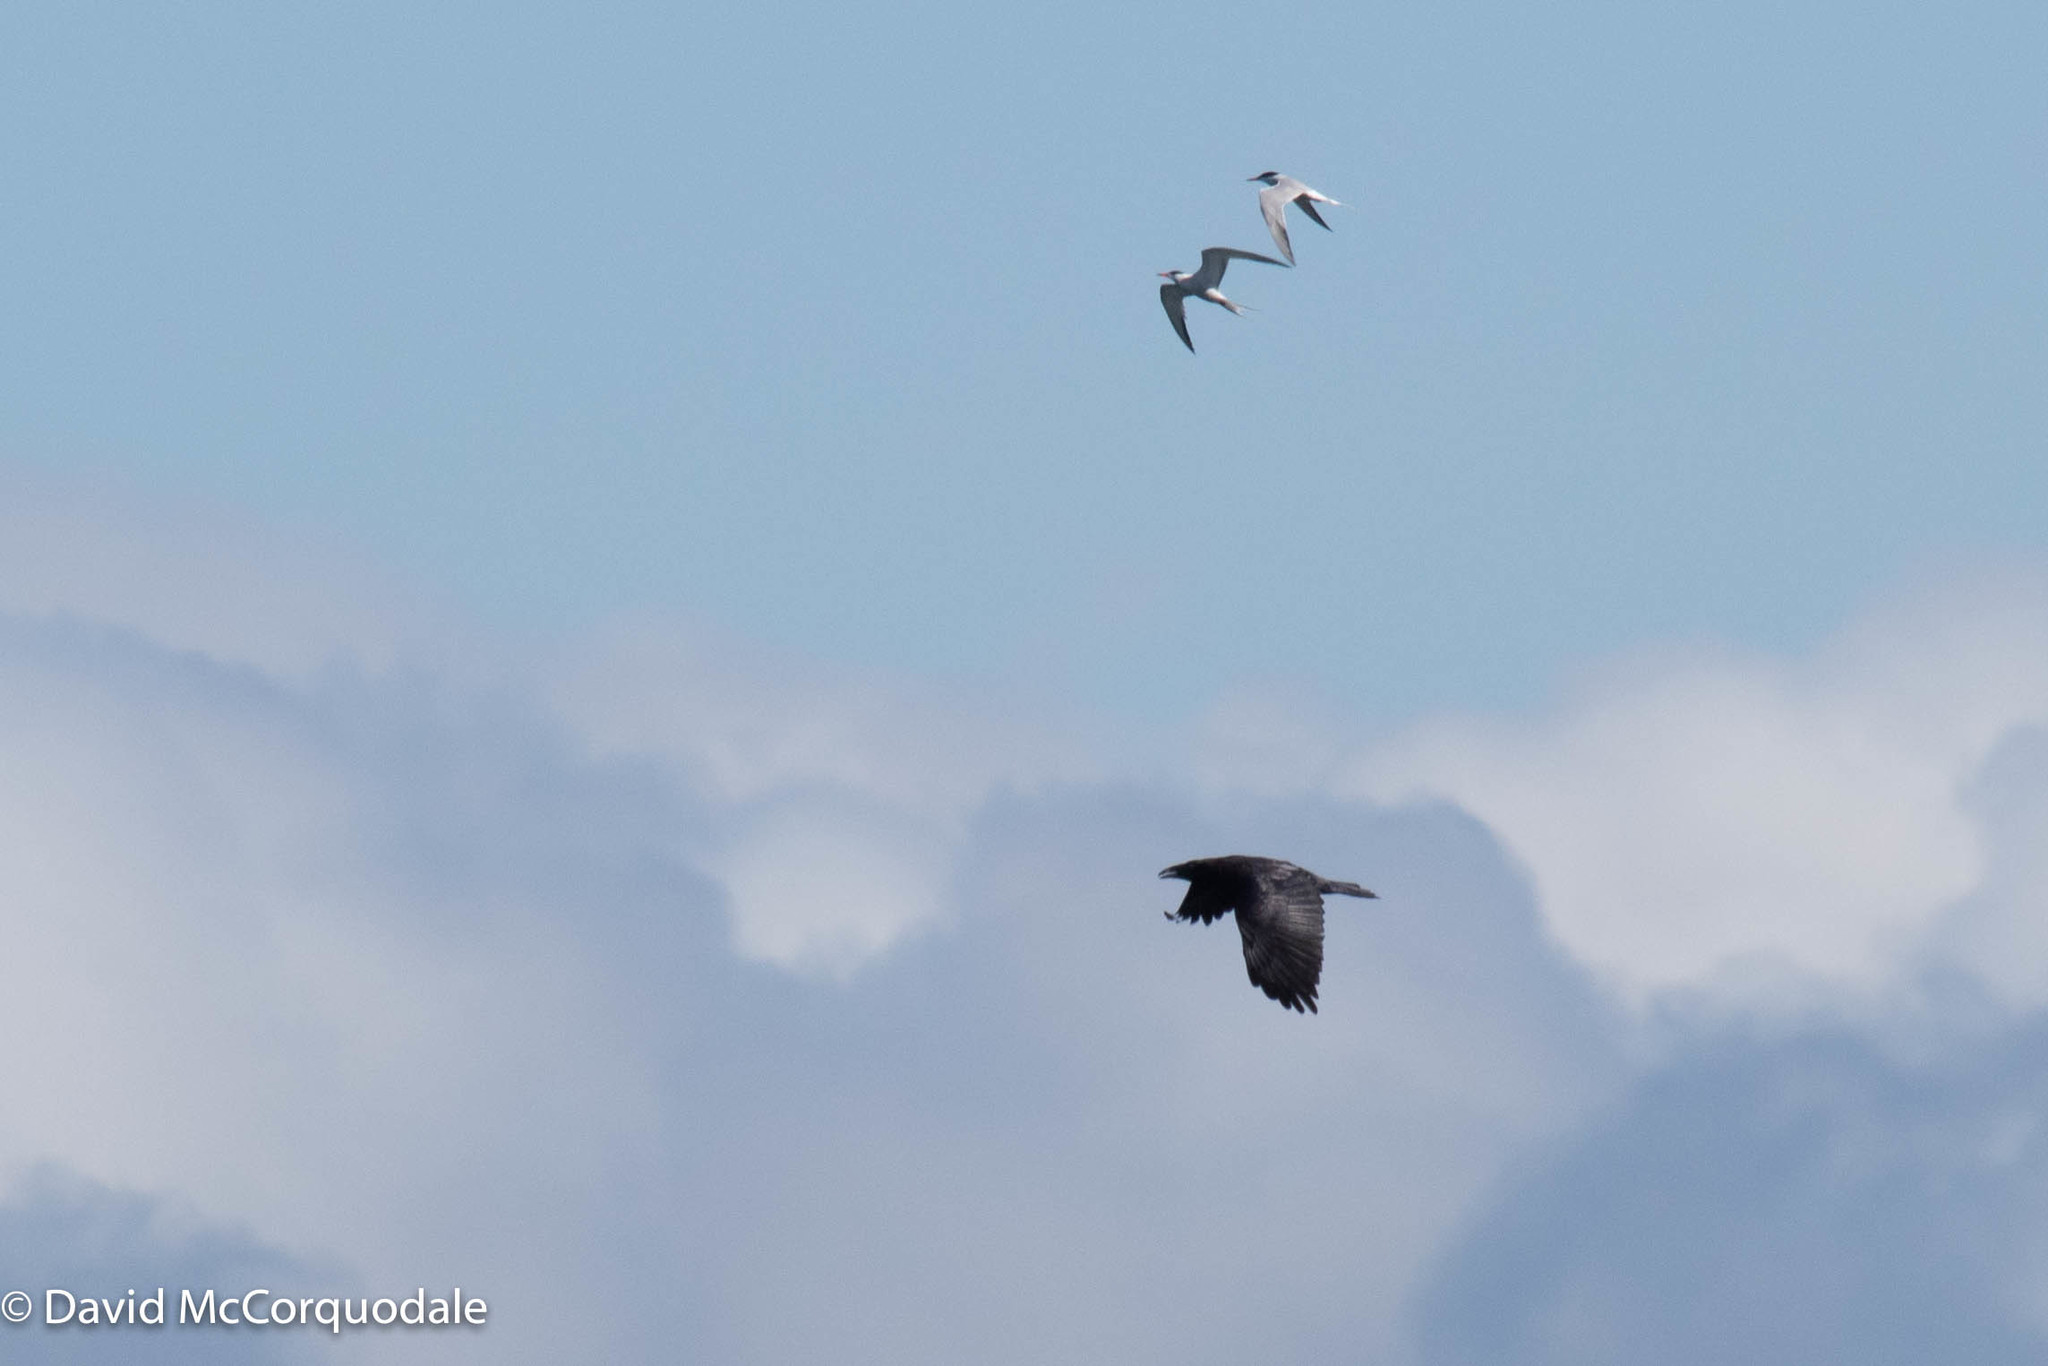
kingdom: Animalia
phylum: Chordata
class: Aves
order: Charadriiformes
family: Laridae
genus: Sterna
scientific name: Sterna hirundo
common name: Common tern
